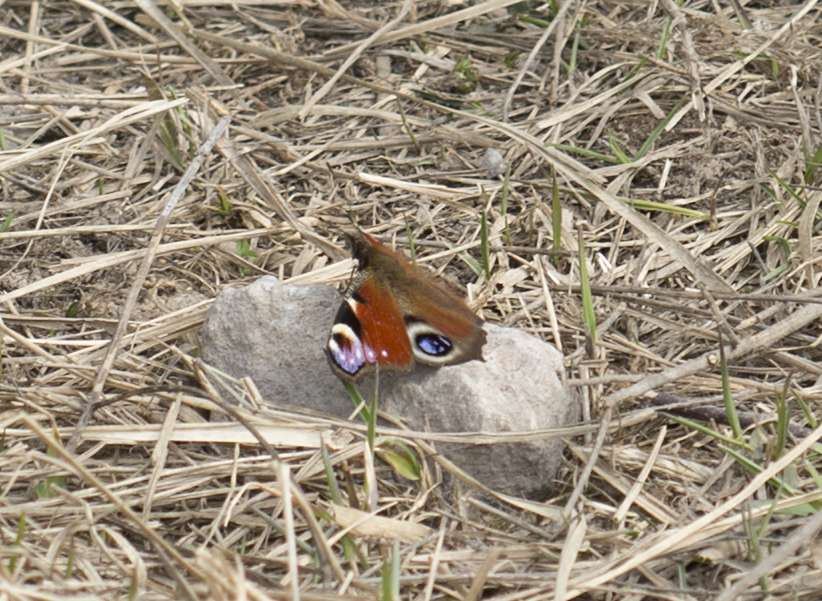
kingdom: Animalia
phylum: Arthropoda
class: Insecta
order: Lepidoptera
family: Nymphalidae
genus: Aglais
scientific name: Aglais io
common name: Peacock
